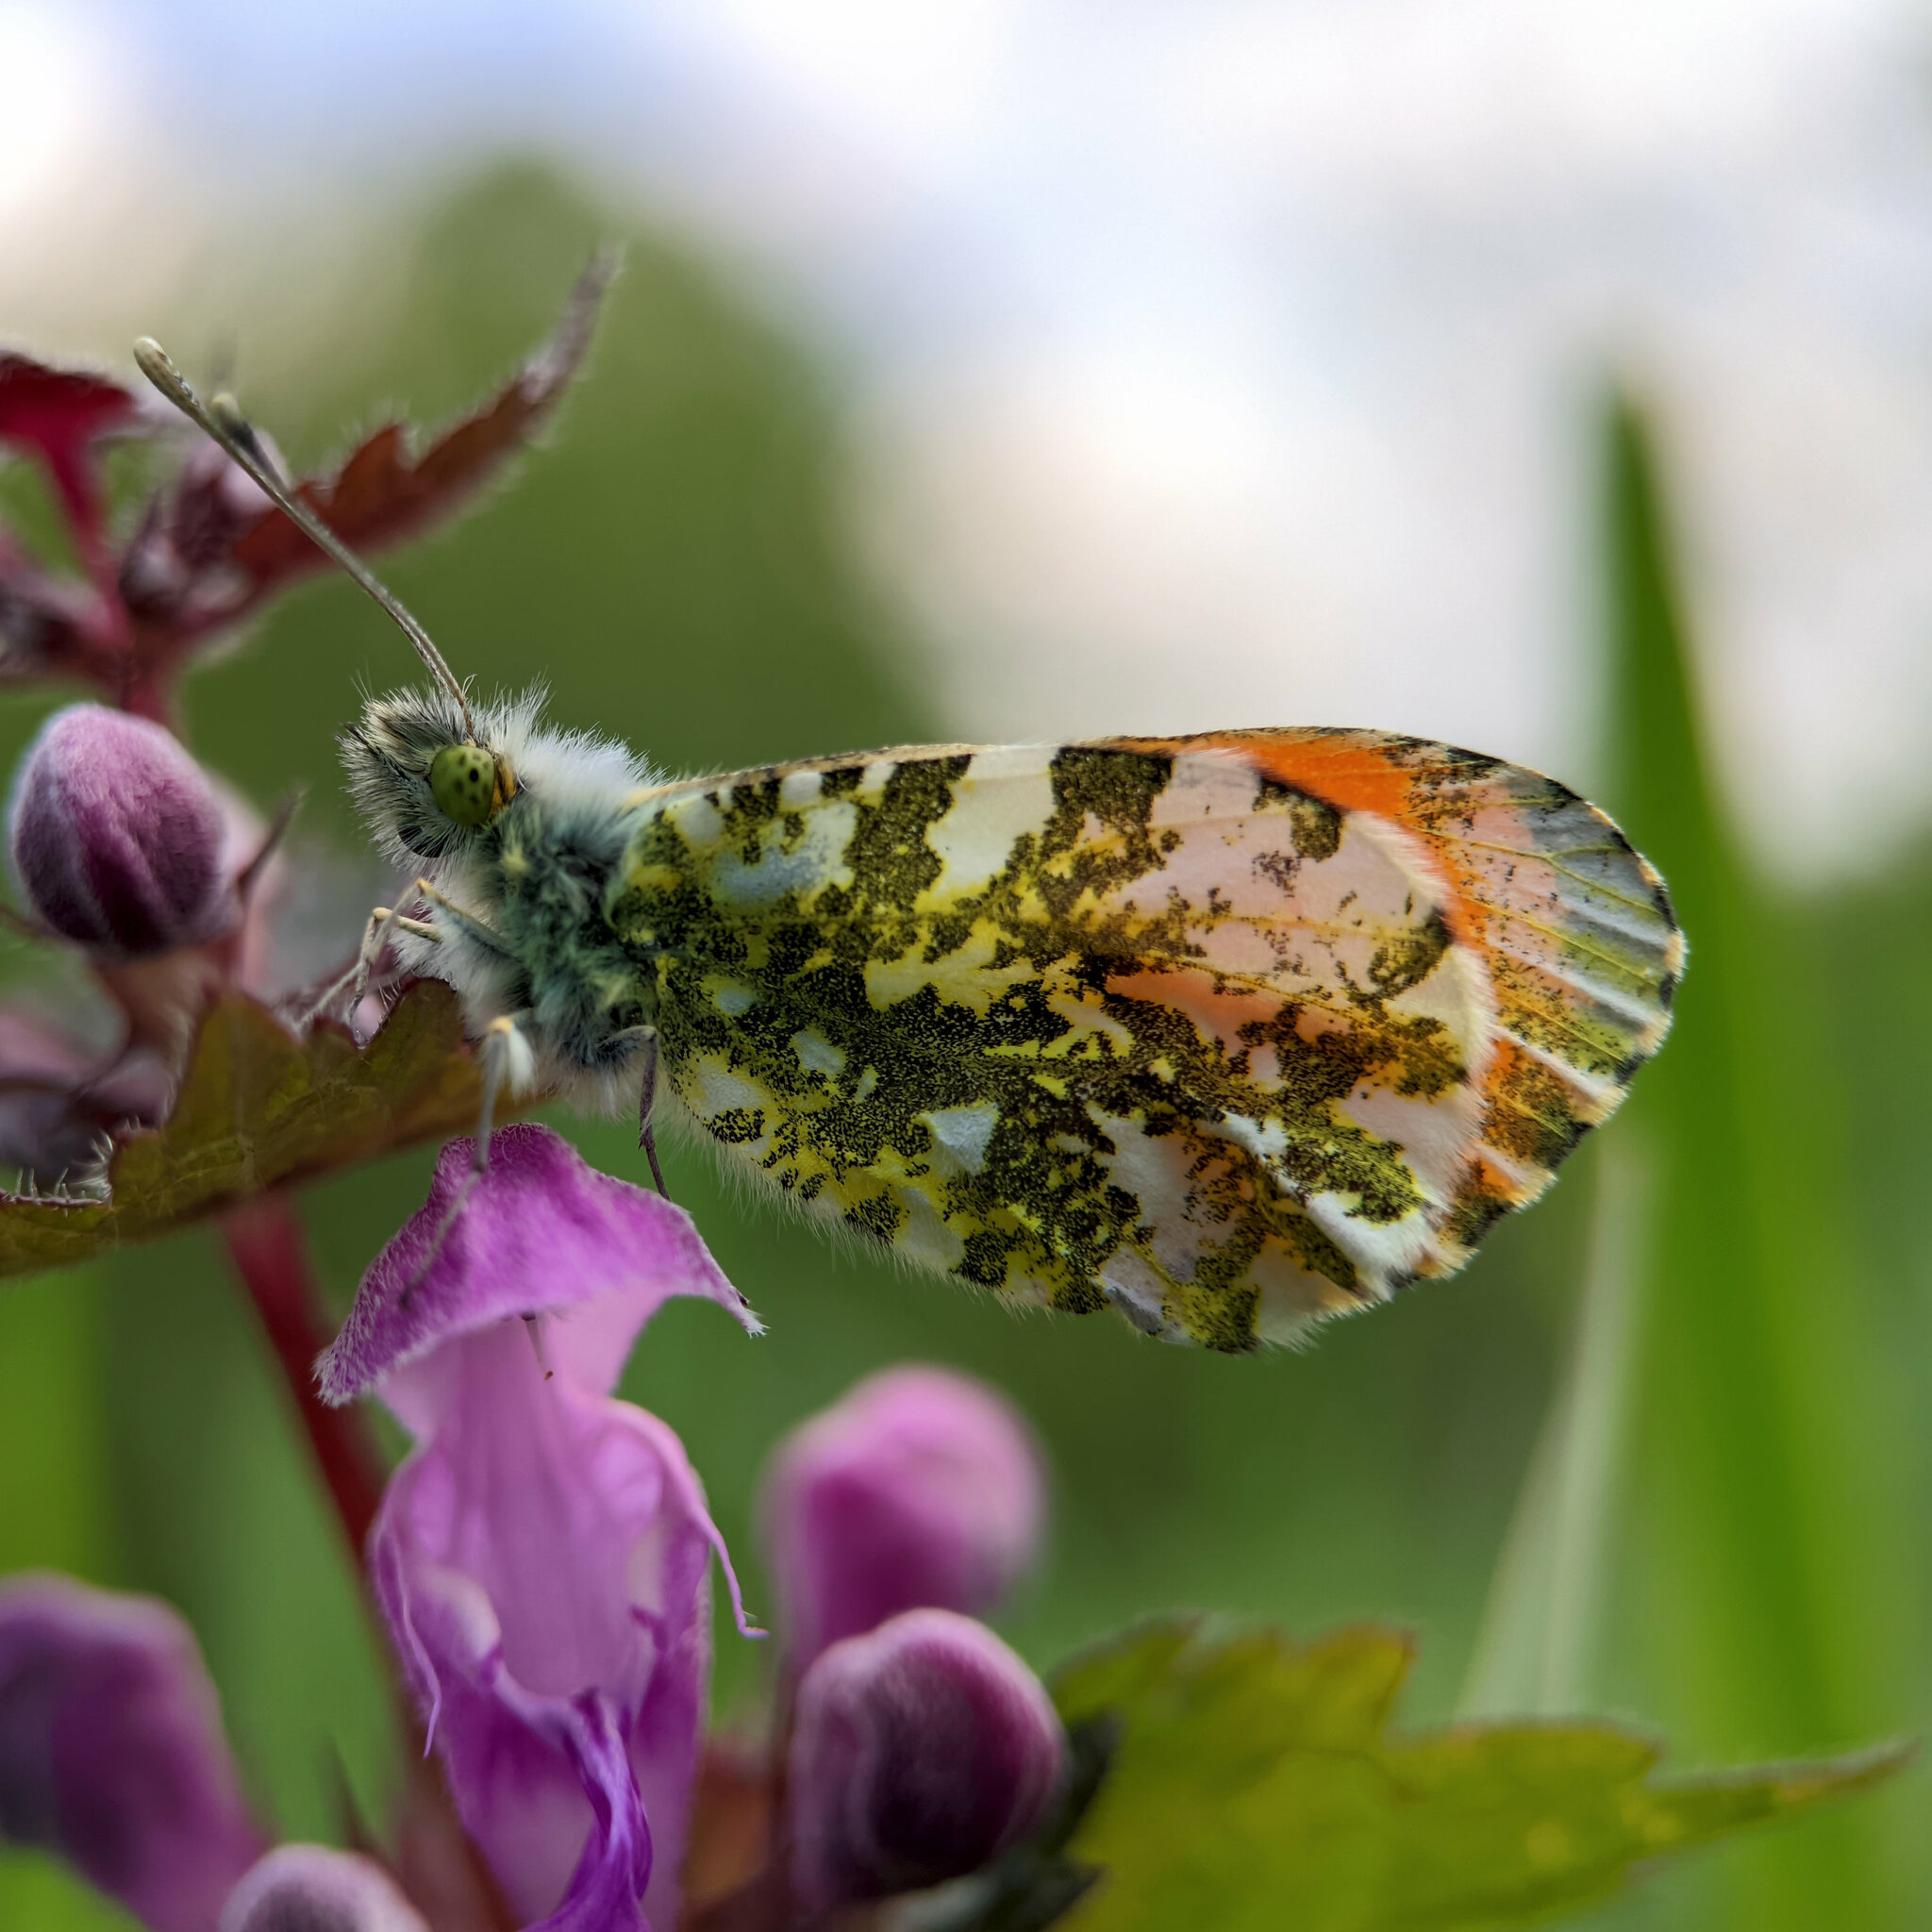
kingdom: Animalia
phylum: Arthropoda
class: Insecta
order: Lepidoptera
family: Pieridae
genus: Anthocharis
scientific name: Anthocharis cardamines
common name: Orange-tip
